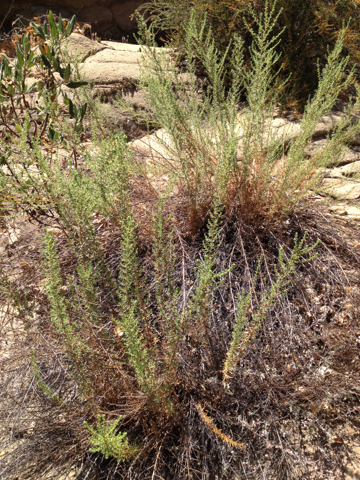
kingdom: Plantae
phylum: Tracheophyta
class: Magnoliopsida
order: Asterales
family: Asteraceae
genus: Deinandra
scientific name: Deinandra minthornii
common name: Santa susana tarplant
